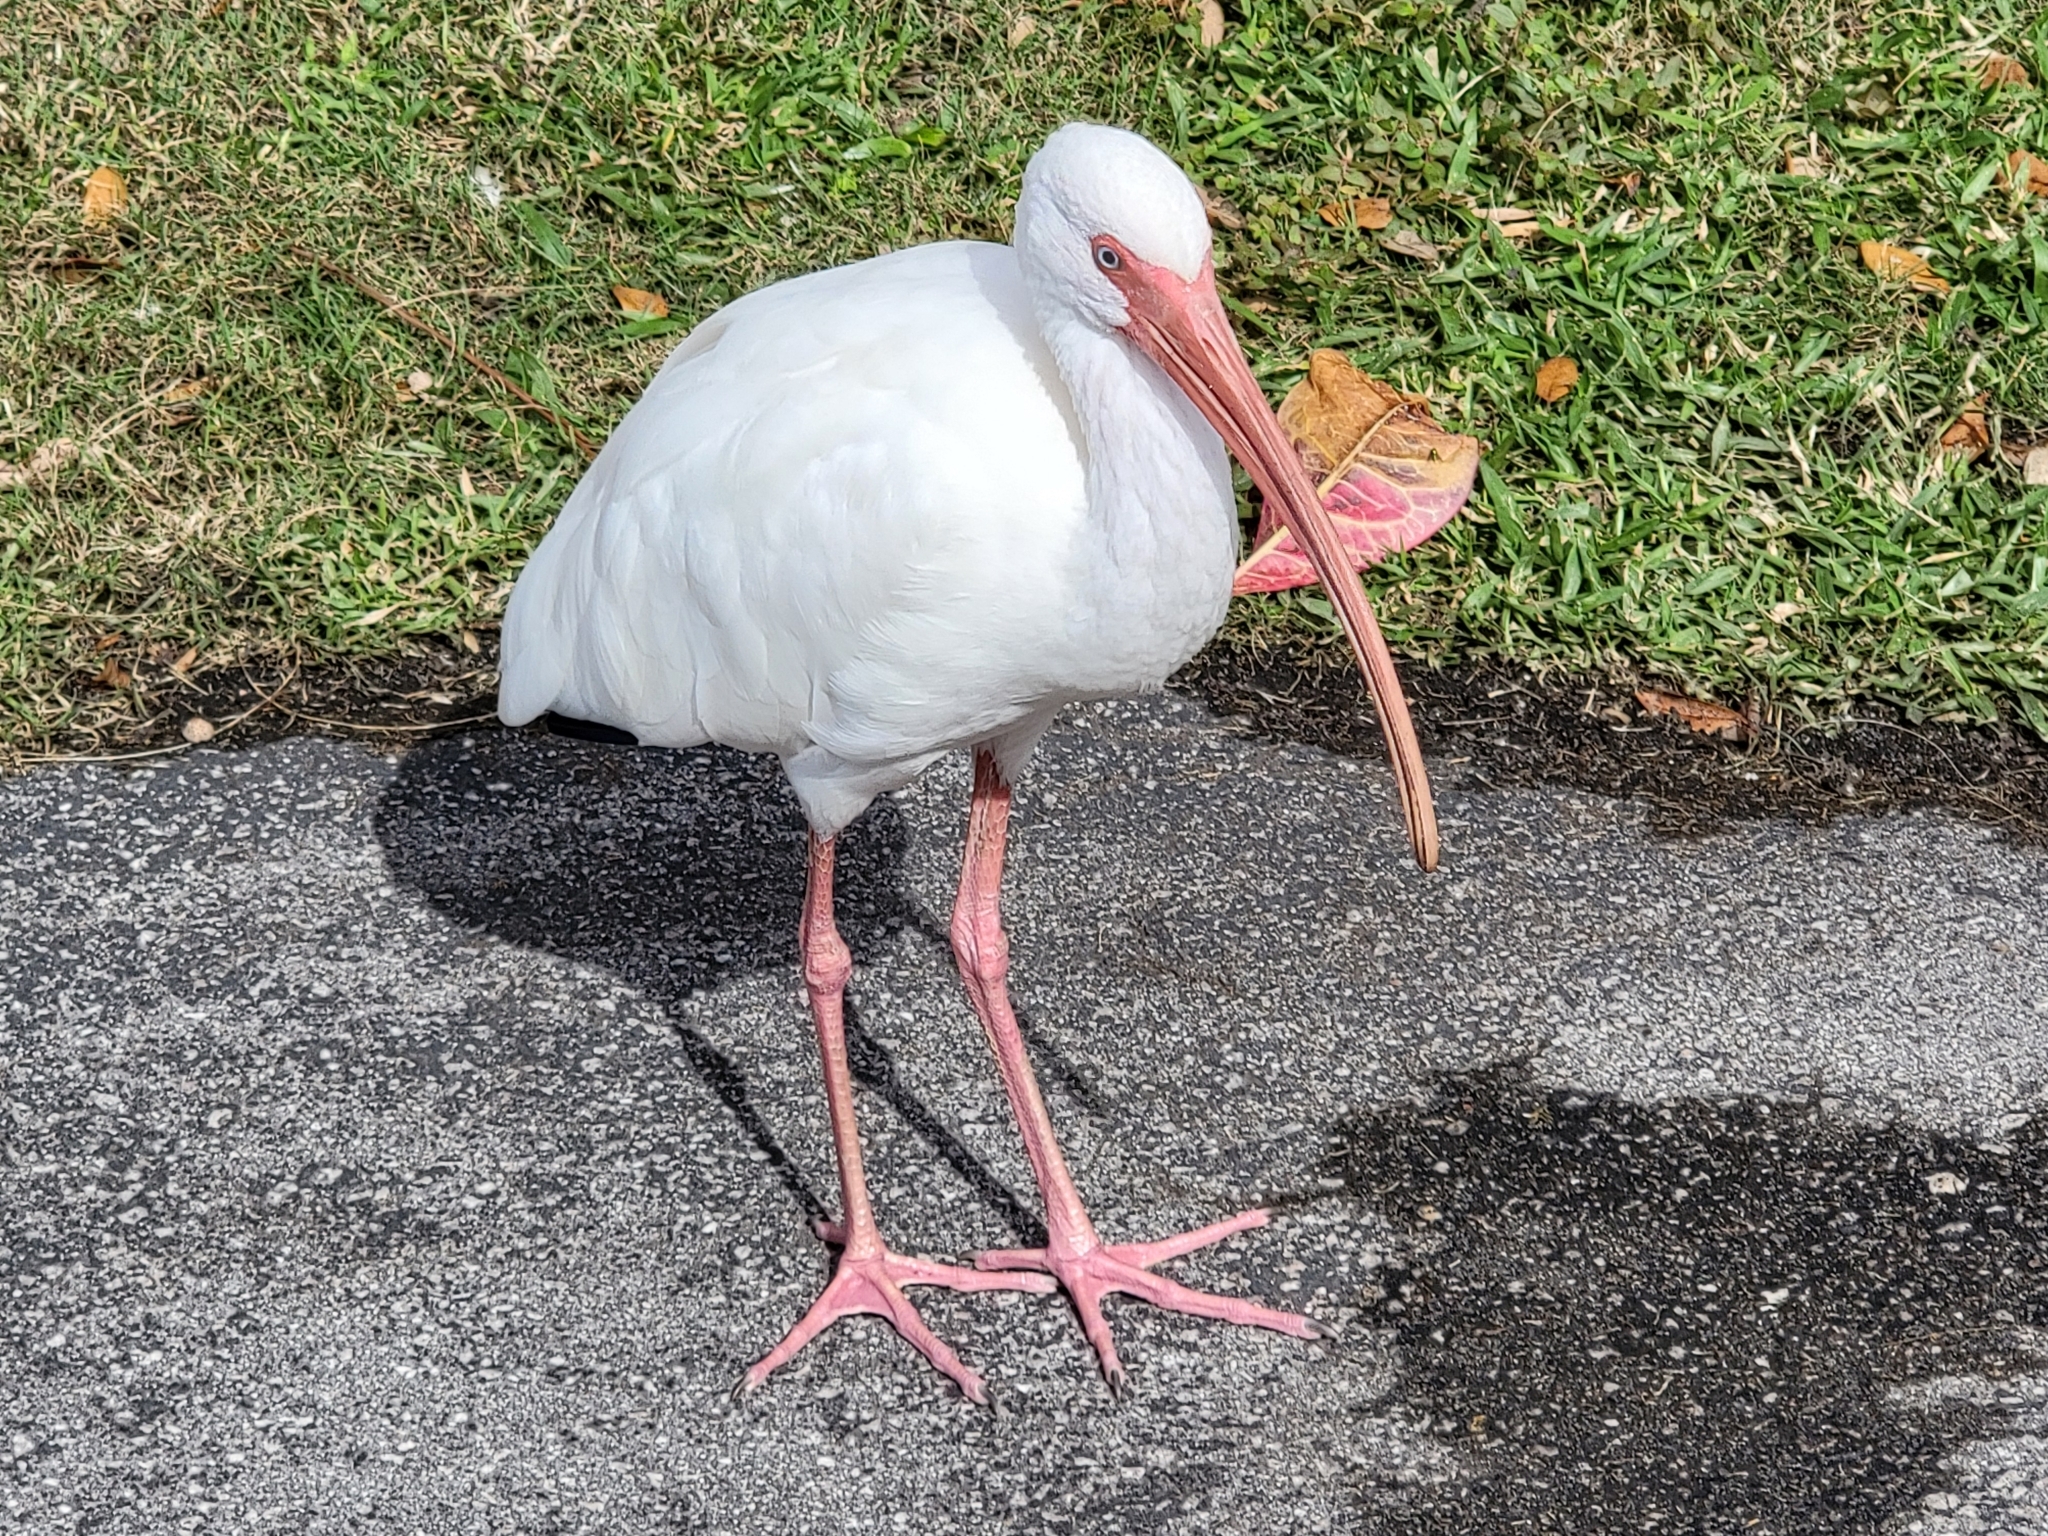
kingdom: Animalia
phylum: Chordata
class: Aves
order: Pelecaniformes
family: Threskiornithidae
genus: Eudocimus
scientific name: Eudocimus albus
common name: White ibis
